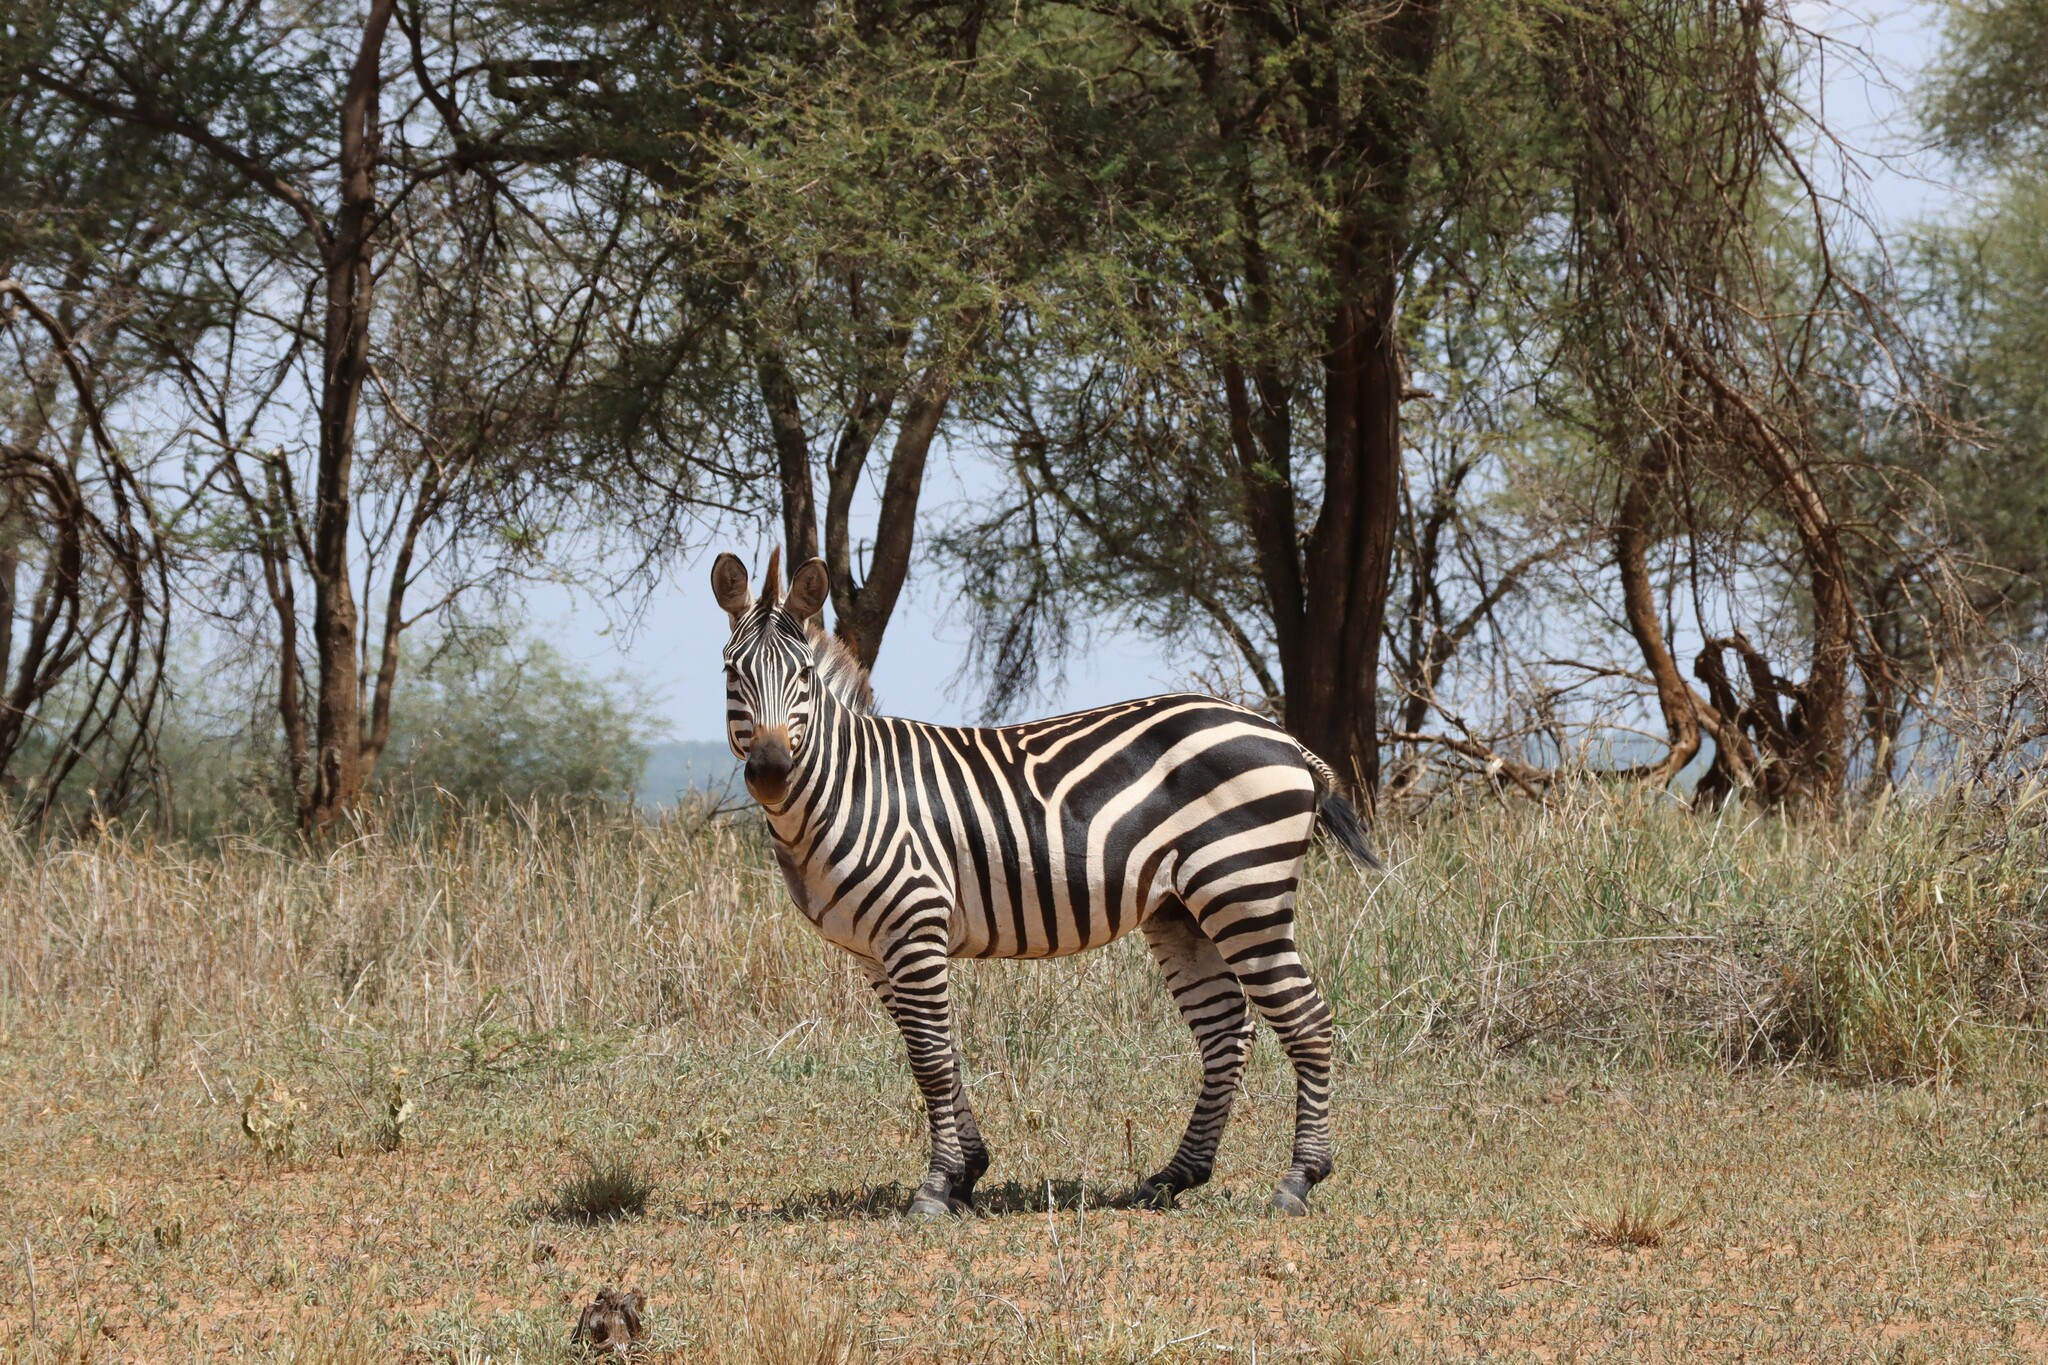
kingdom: Animalia
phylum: Chordata
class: Mammalia
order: Perissodactyla
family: Equidae
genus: Equus
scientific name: Equus quagga
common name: Plains zebra
